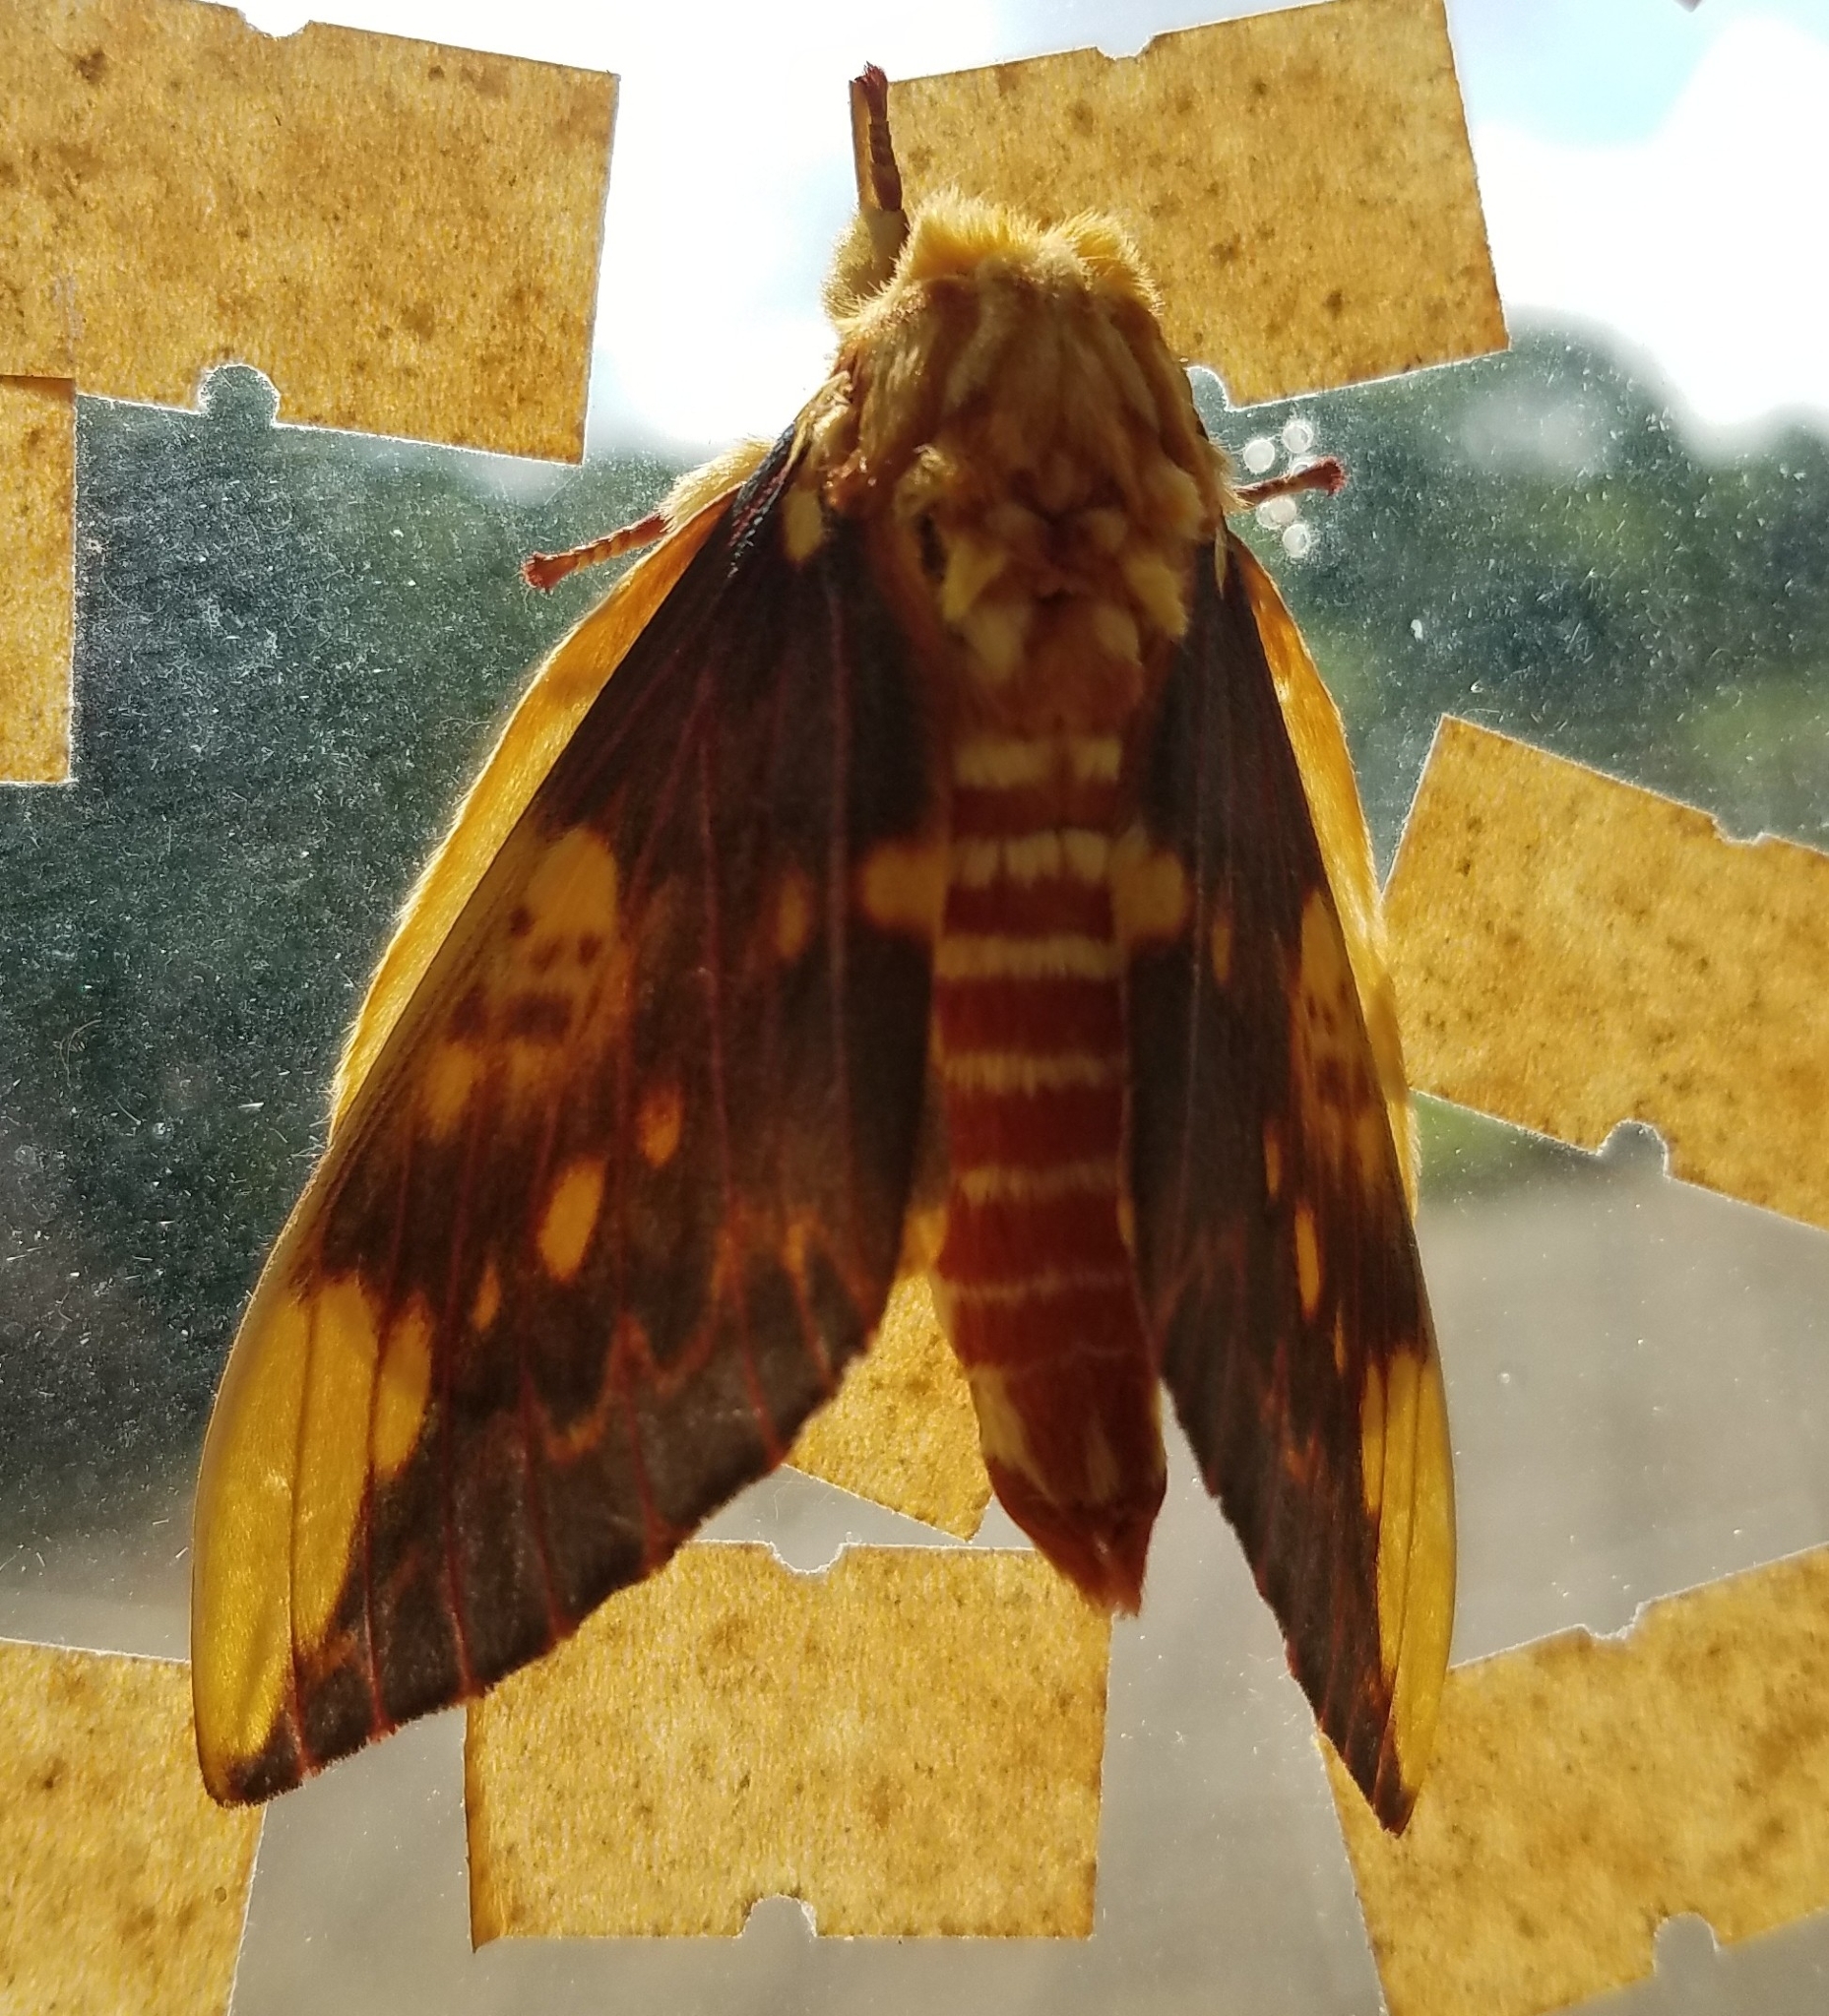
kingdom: Animalia
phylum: Arthropoda
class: Insecta
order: Lepidoptera
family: Saturniidae
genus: Citheronia
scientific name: Citheronia lobesis
